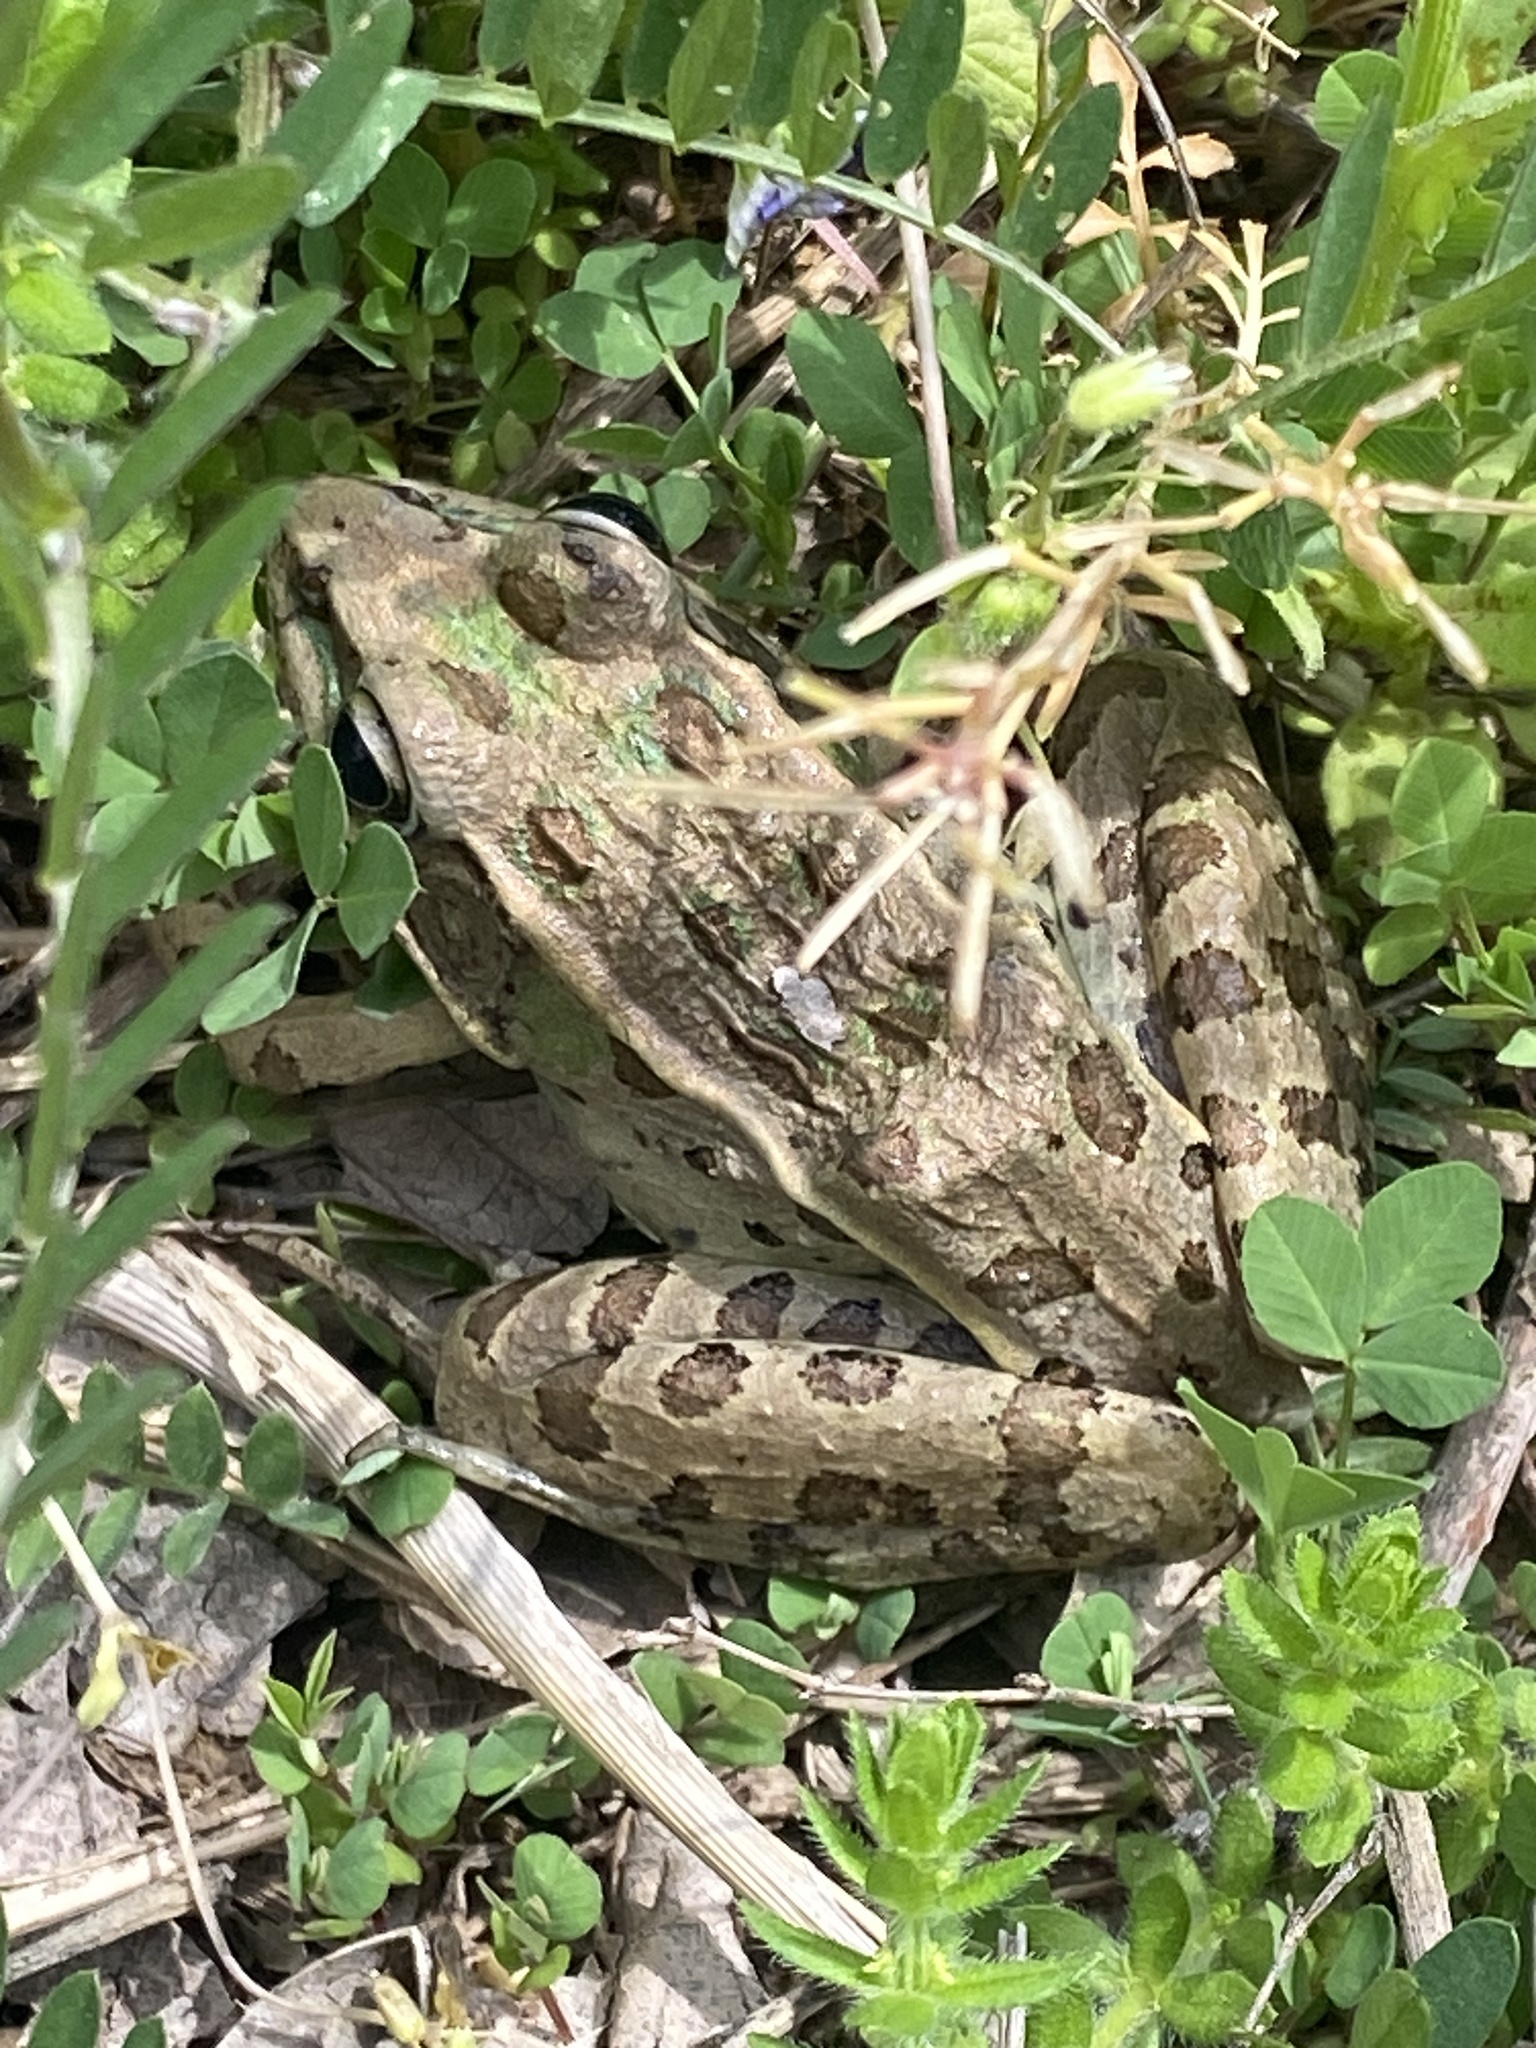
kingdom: Animalia
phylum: Chordata
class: Amphibia
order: Anura
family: Ranidae
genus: Lithobates
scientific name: Lithobates sphenocephalus
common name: Southern leopard frog
